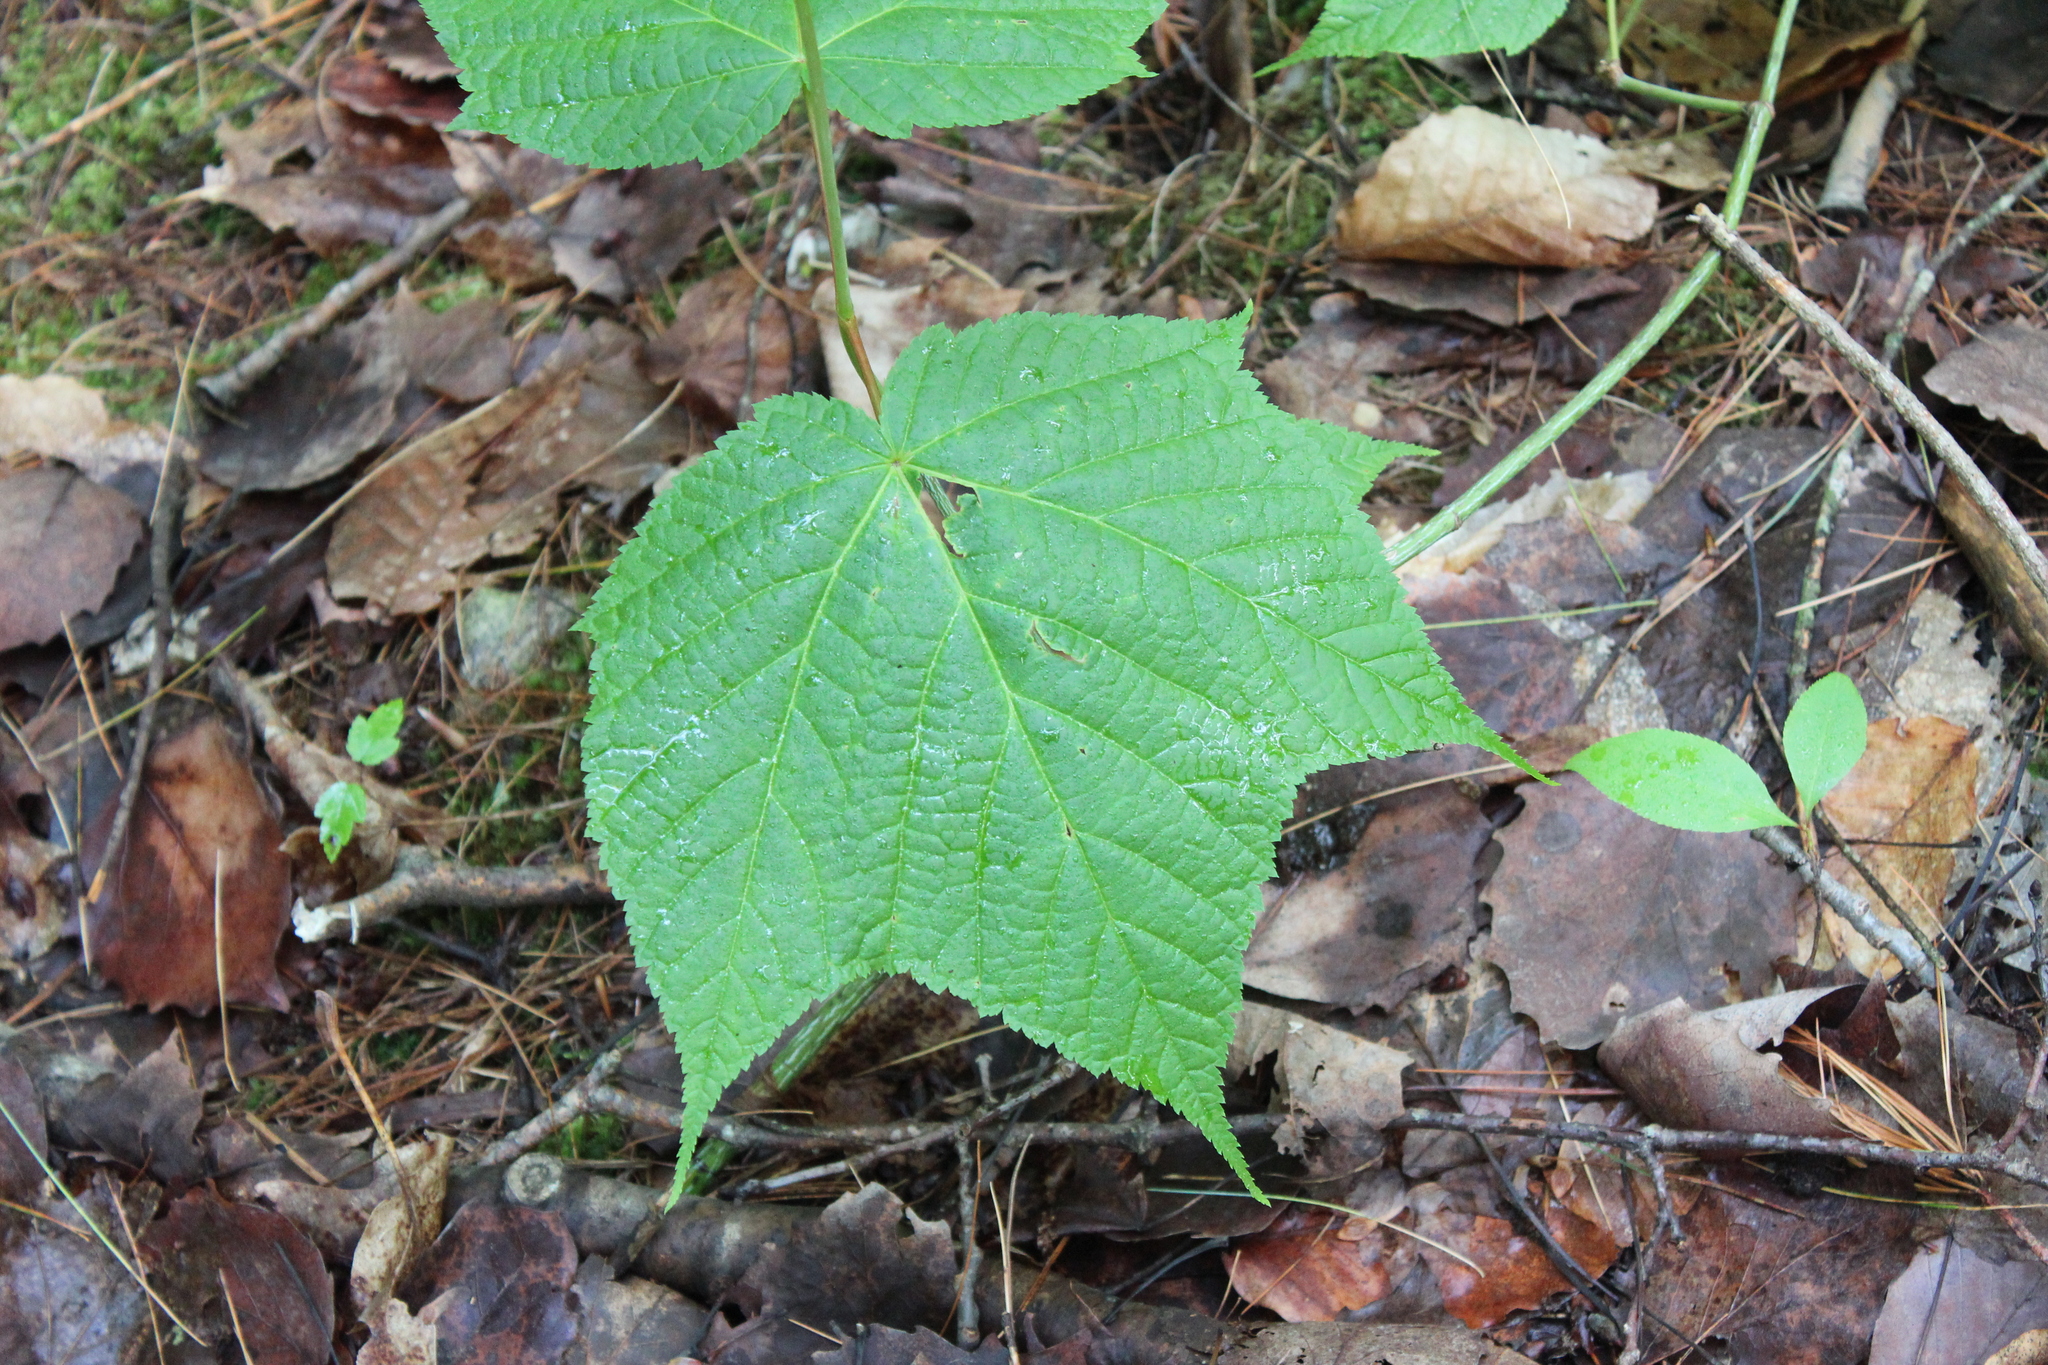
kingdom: Plantae
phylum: Tracheophyta
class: Magnoliopsida
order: Sapindales
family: Sapindaceae
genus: Acer
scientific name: Acer pensylvanicum
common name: Moosewood
